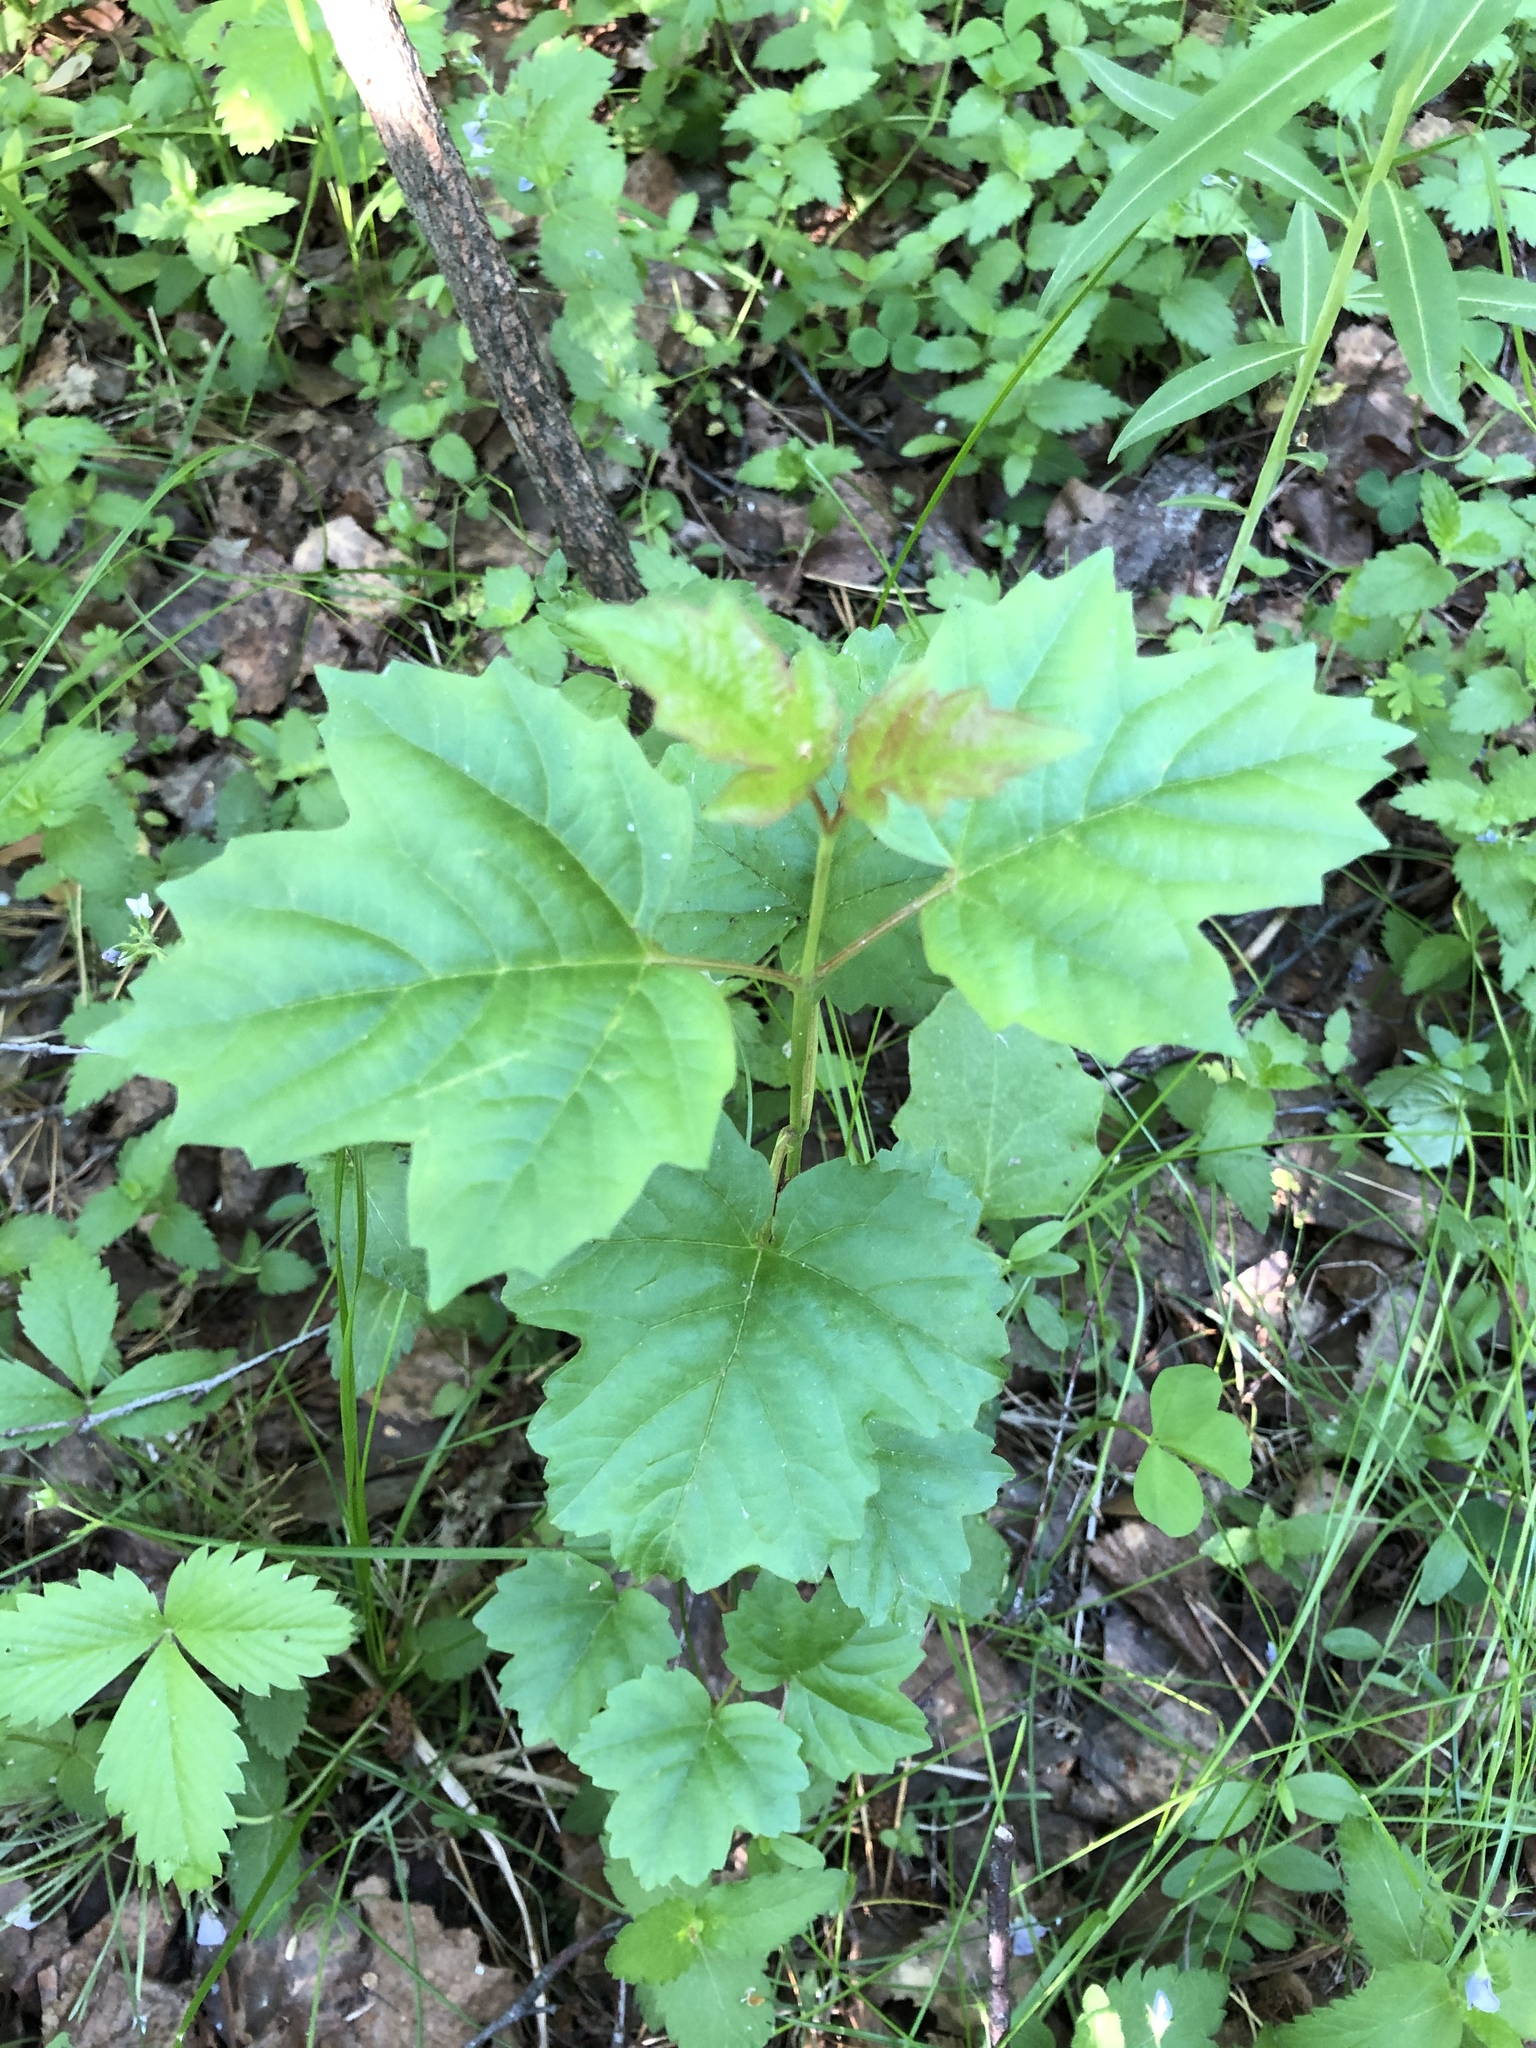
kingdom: Plantae
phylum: Tracheophyta
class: Magnoliopsida
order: Dipsacales
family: Viburnaceae
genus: Viburnum
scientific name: Viburnum opulus
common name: Guelder-rose
